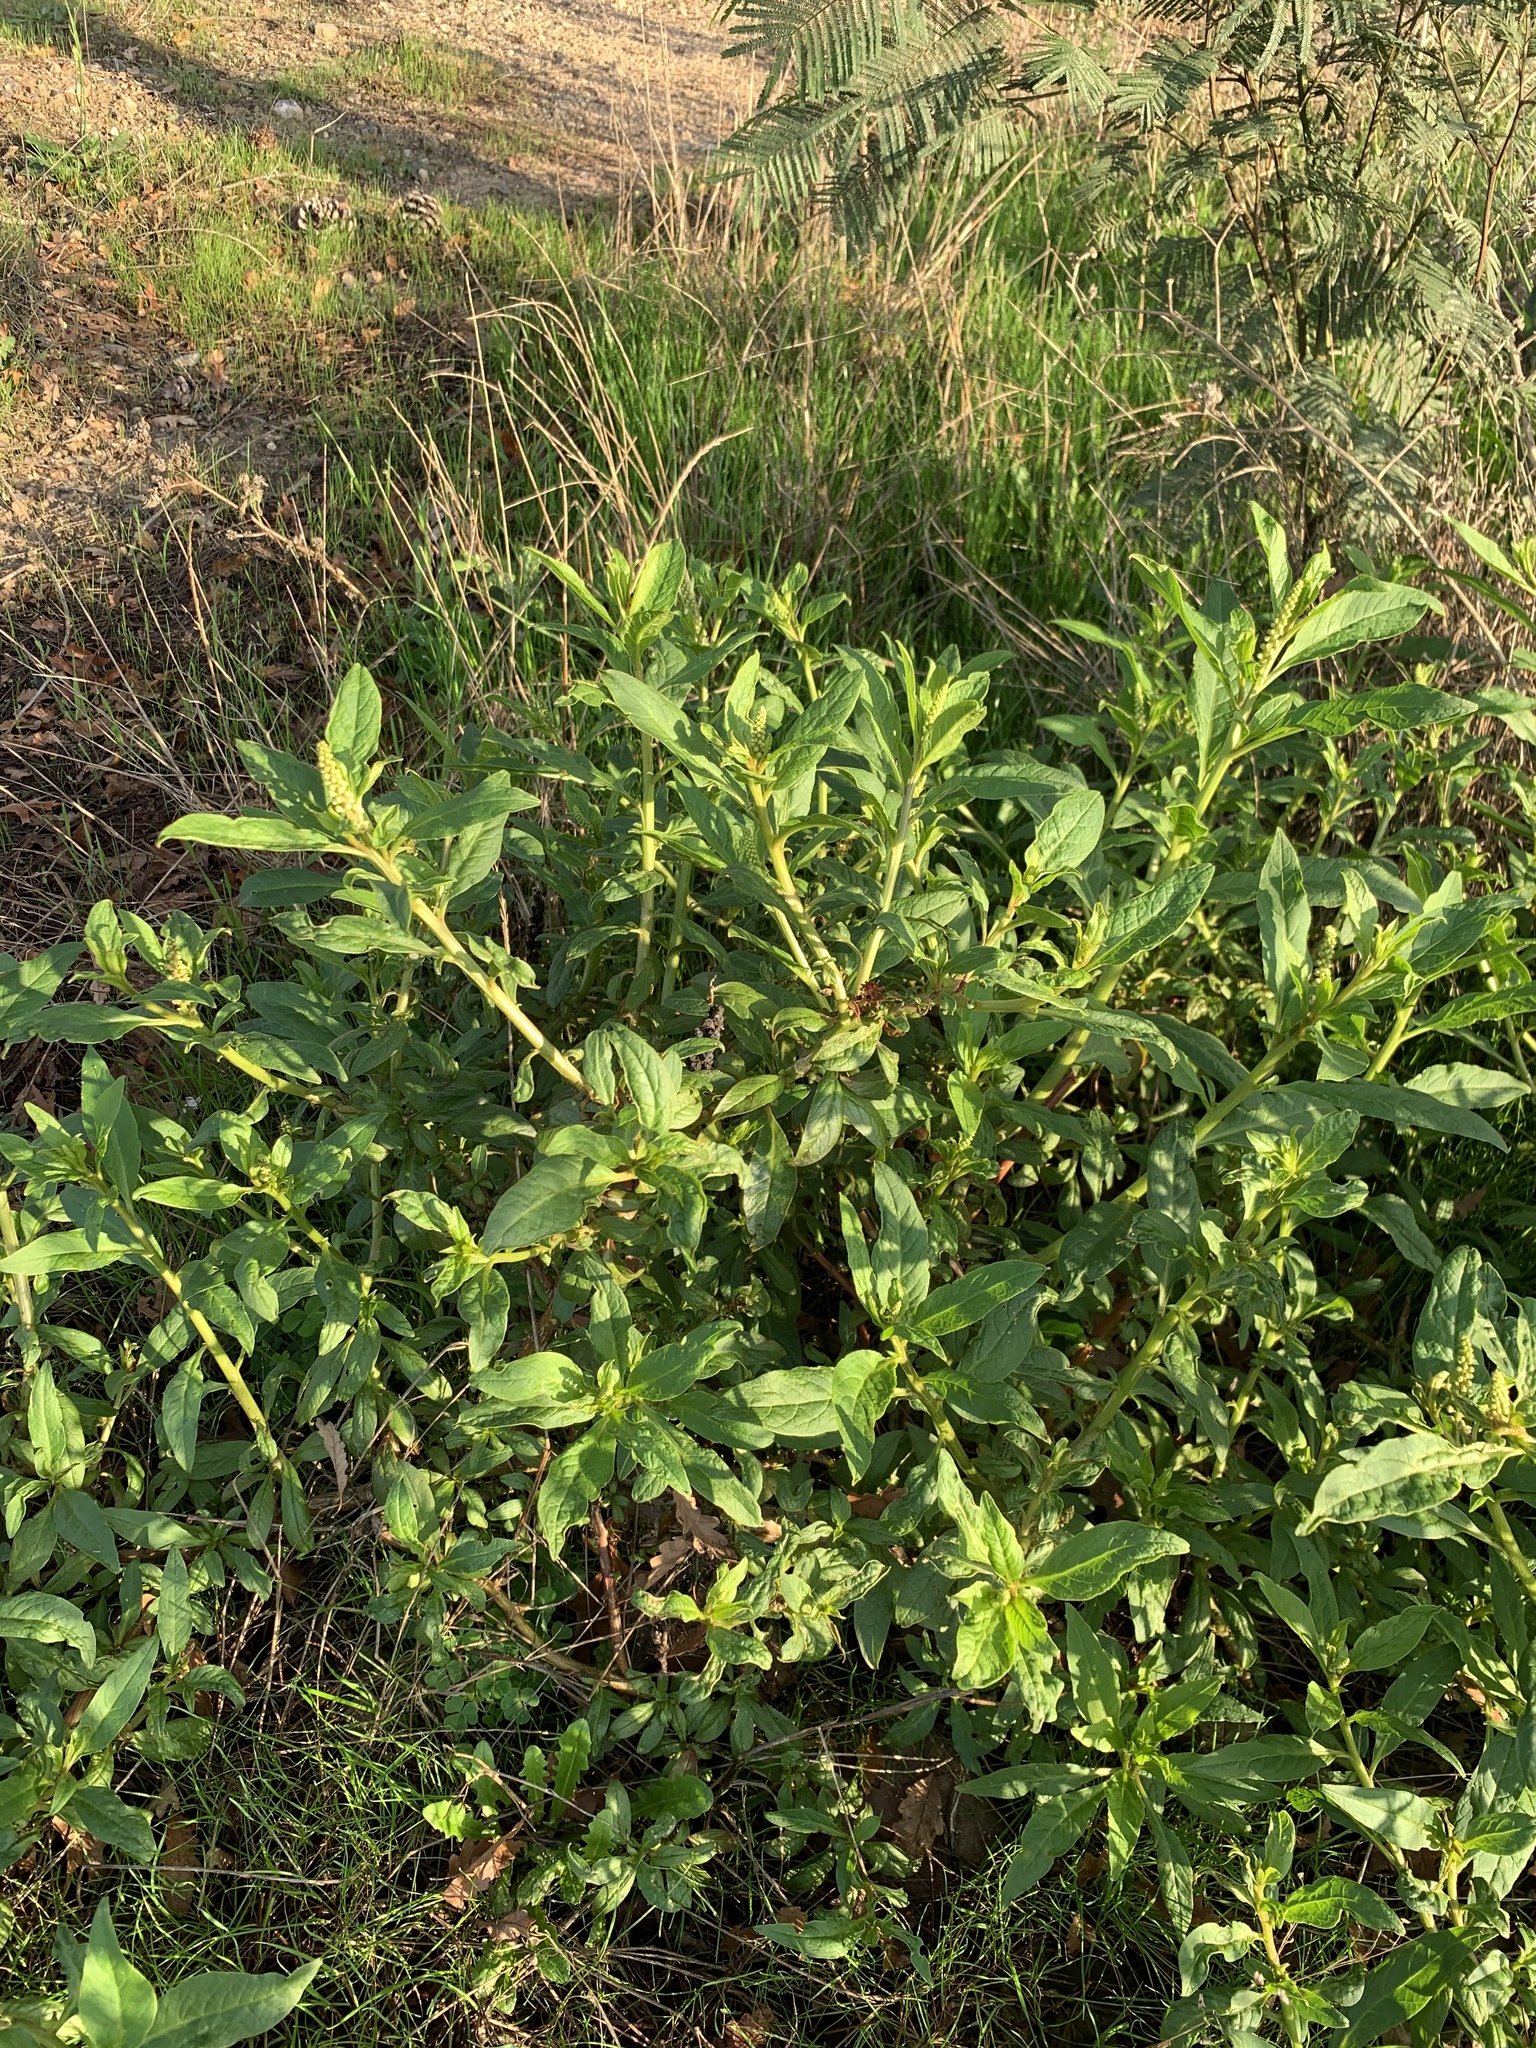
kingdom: Plantae
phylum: Tracheophyta
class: Magnoliopsida
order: Caryophyllales
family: Phytolaccaceae
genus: Phytolacca
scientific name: Phytolacca icosandra
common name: Button pokeweed
